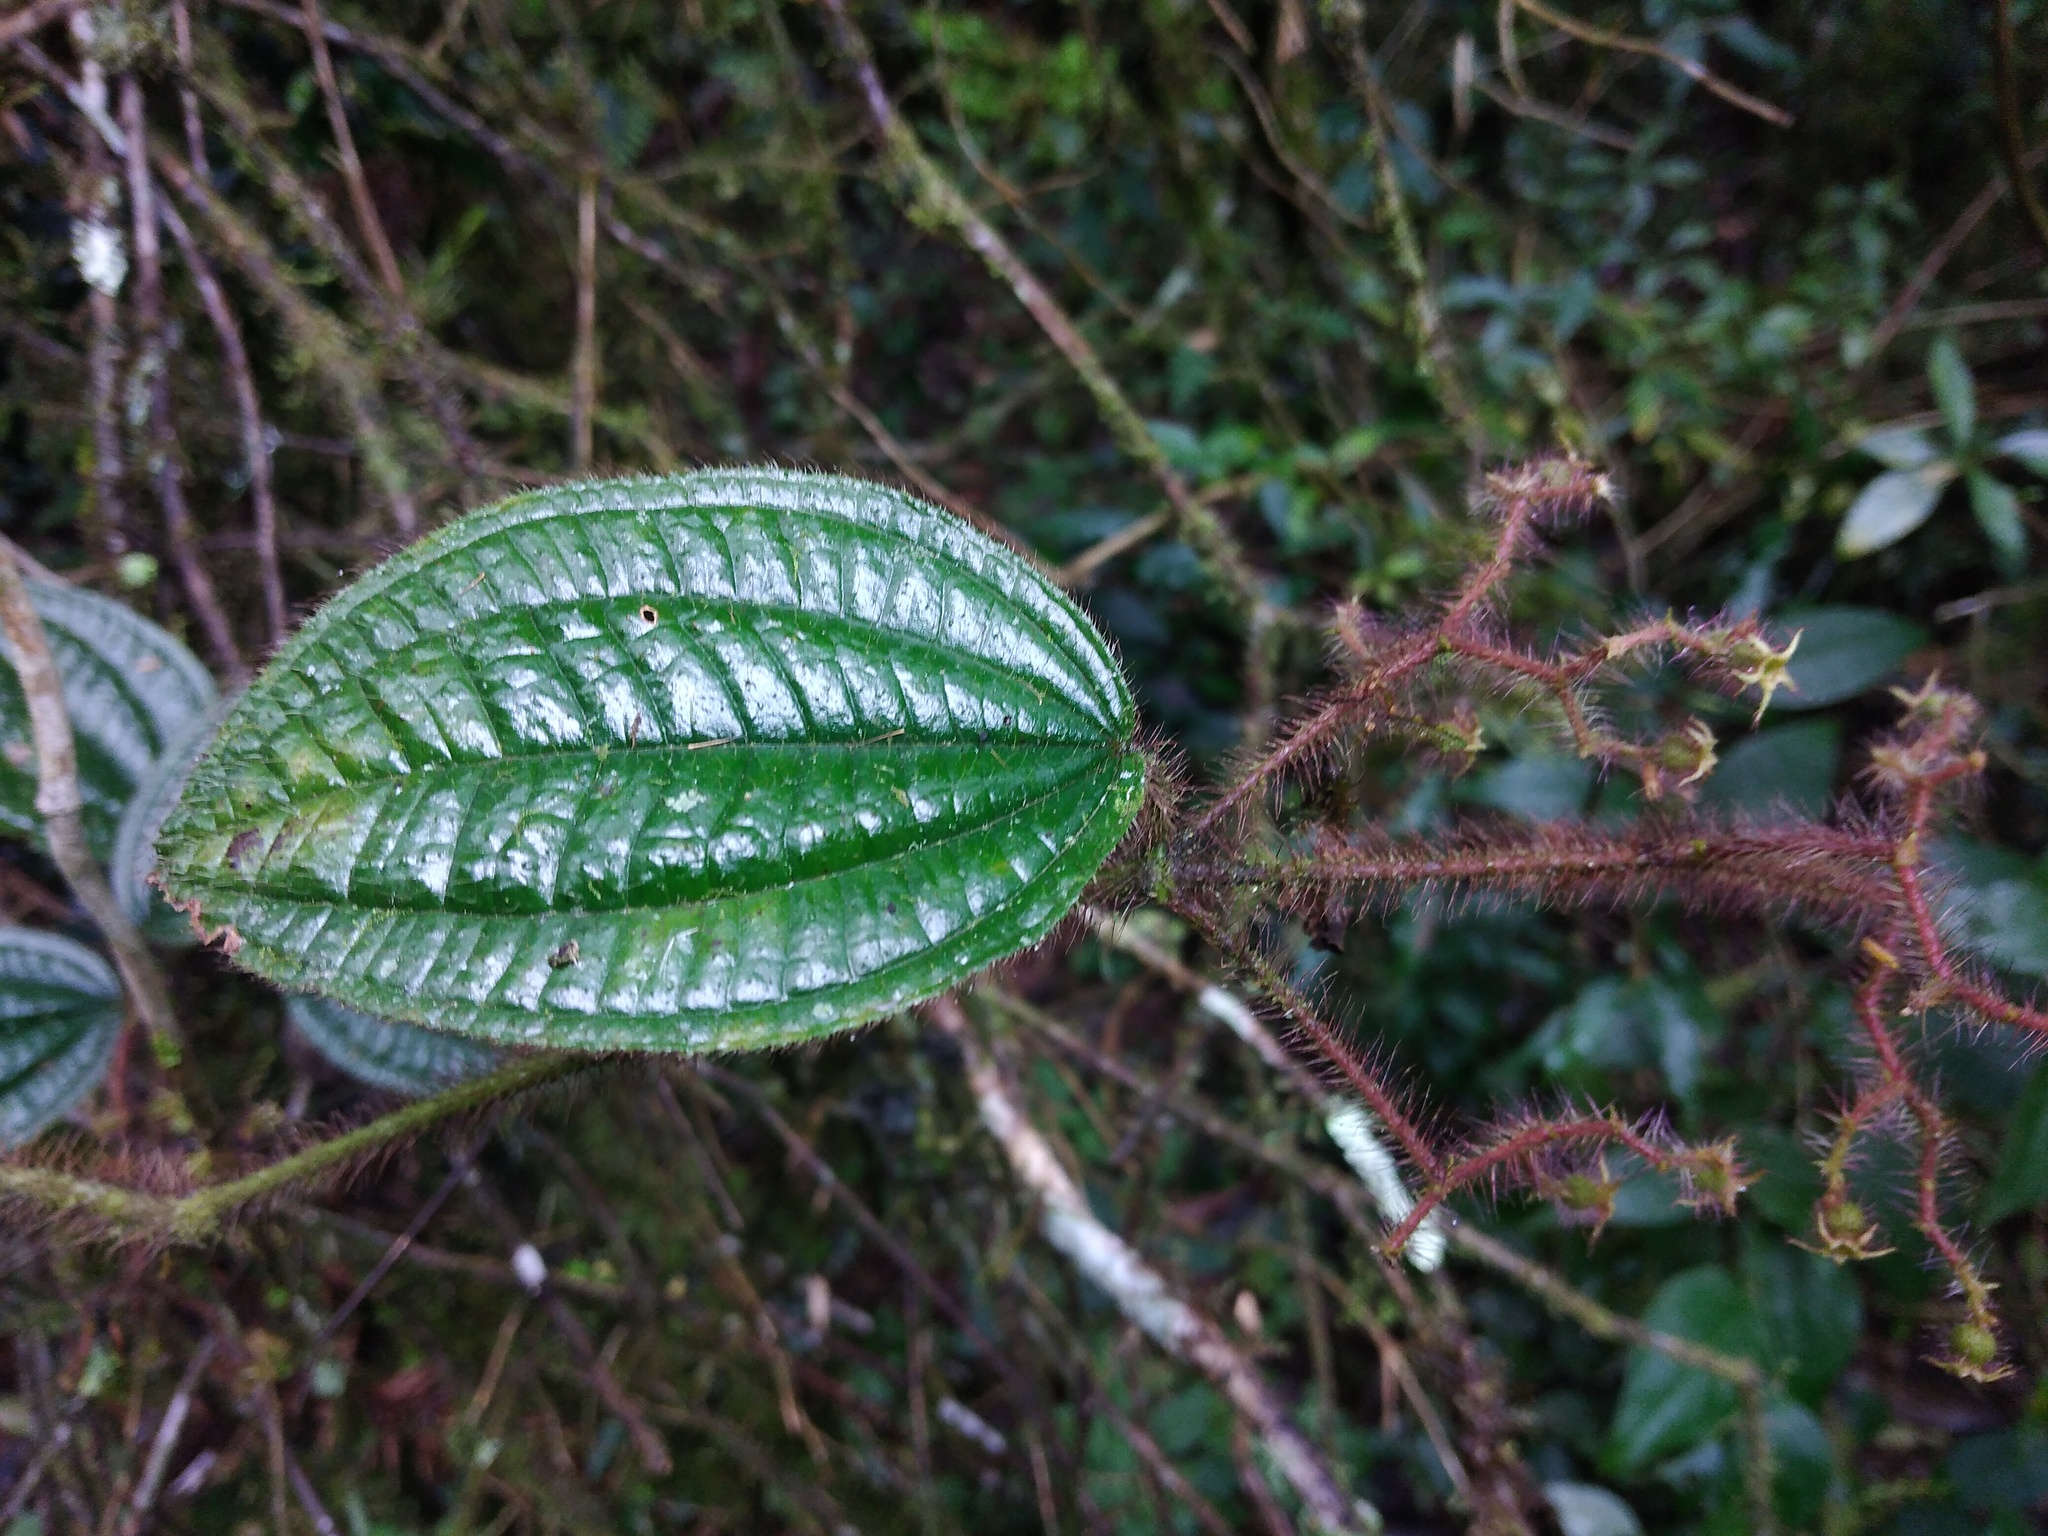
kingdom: Plantae
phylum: Tracheophyta
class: Magnoliopsida
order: Myrtales
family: Melastomataceae
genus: Miconia
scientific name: Miconia australis
